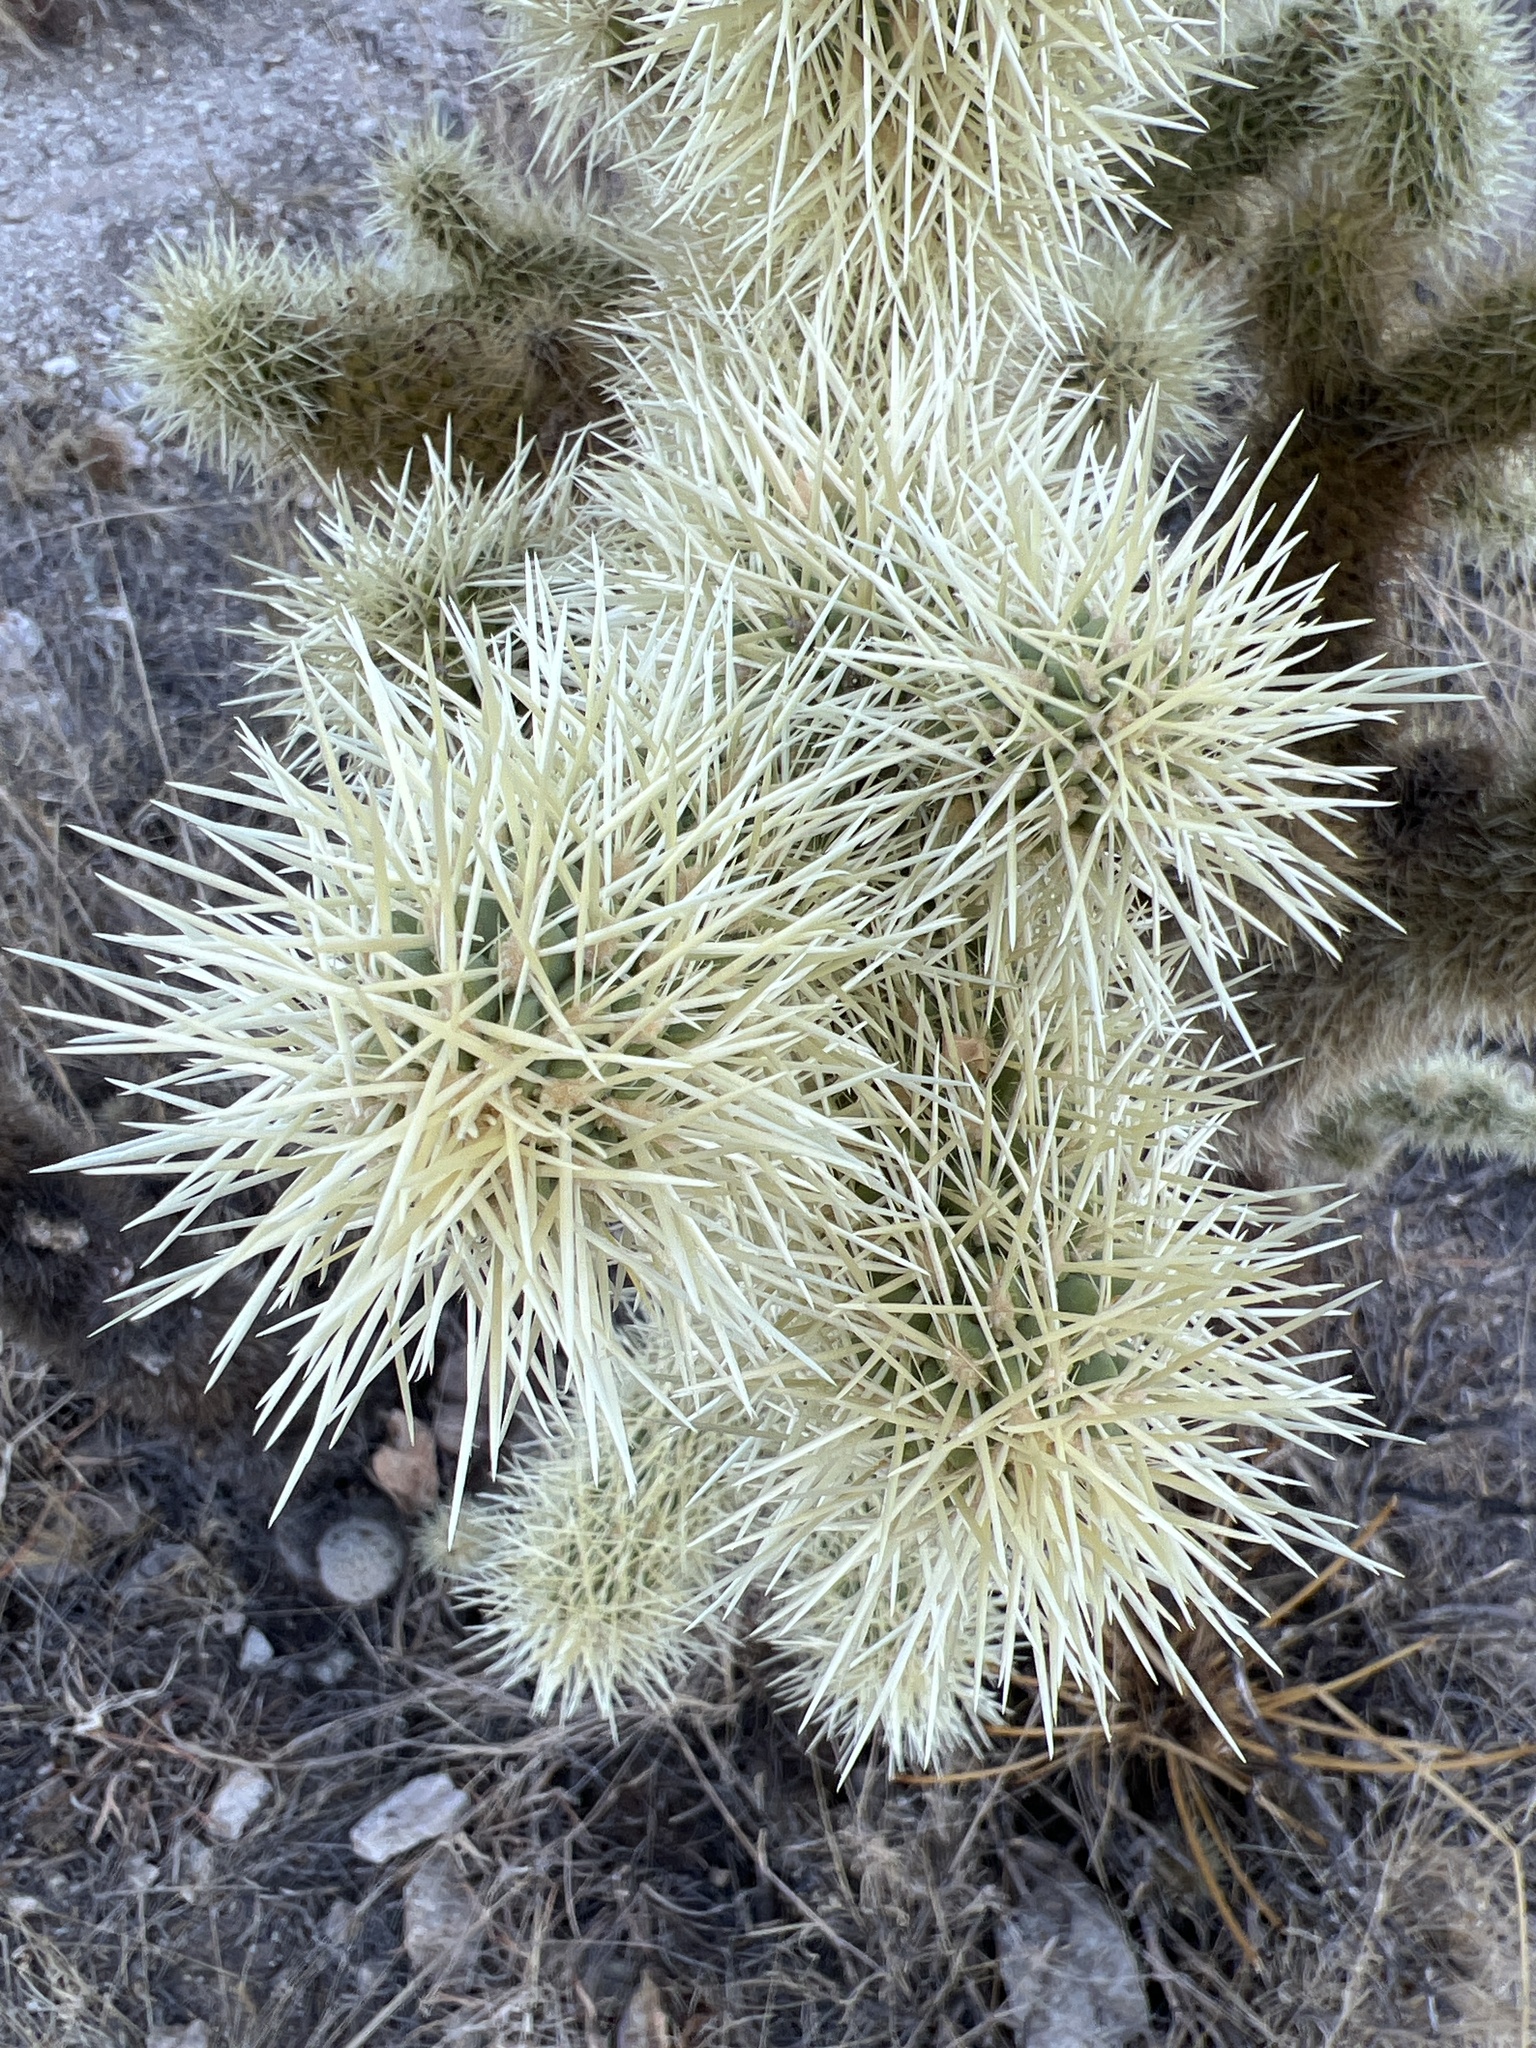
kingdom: Plantae
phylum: Tracheophyta
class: Magnoliopsida
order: Caryophyllales
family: Cactaceae
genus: Cylindropuntia
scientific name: Cylindropuntia fosbergii
